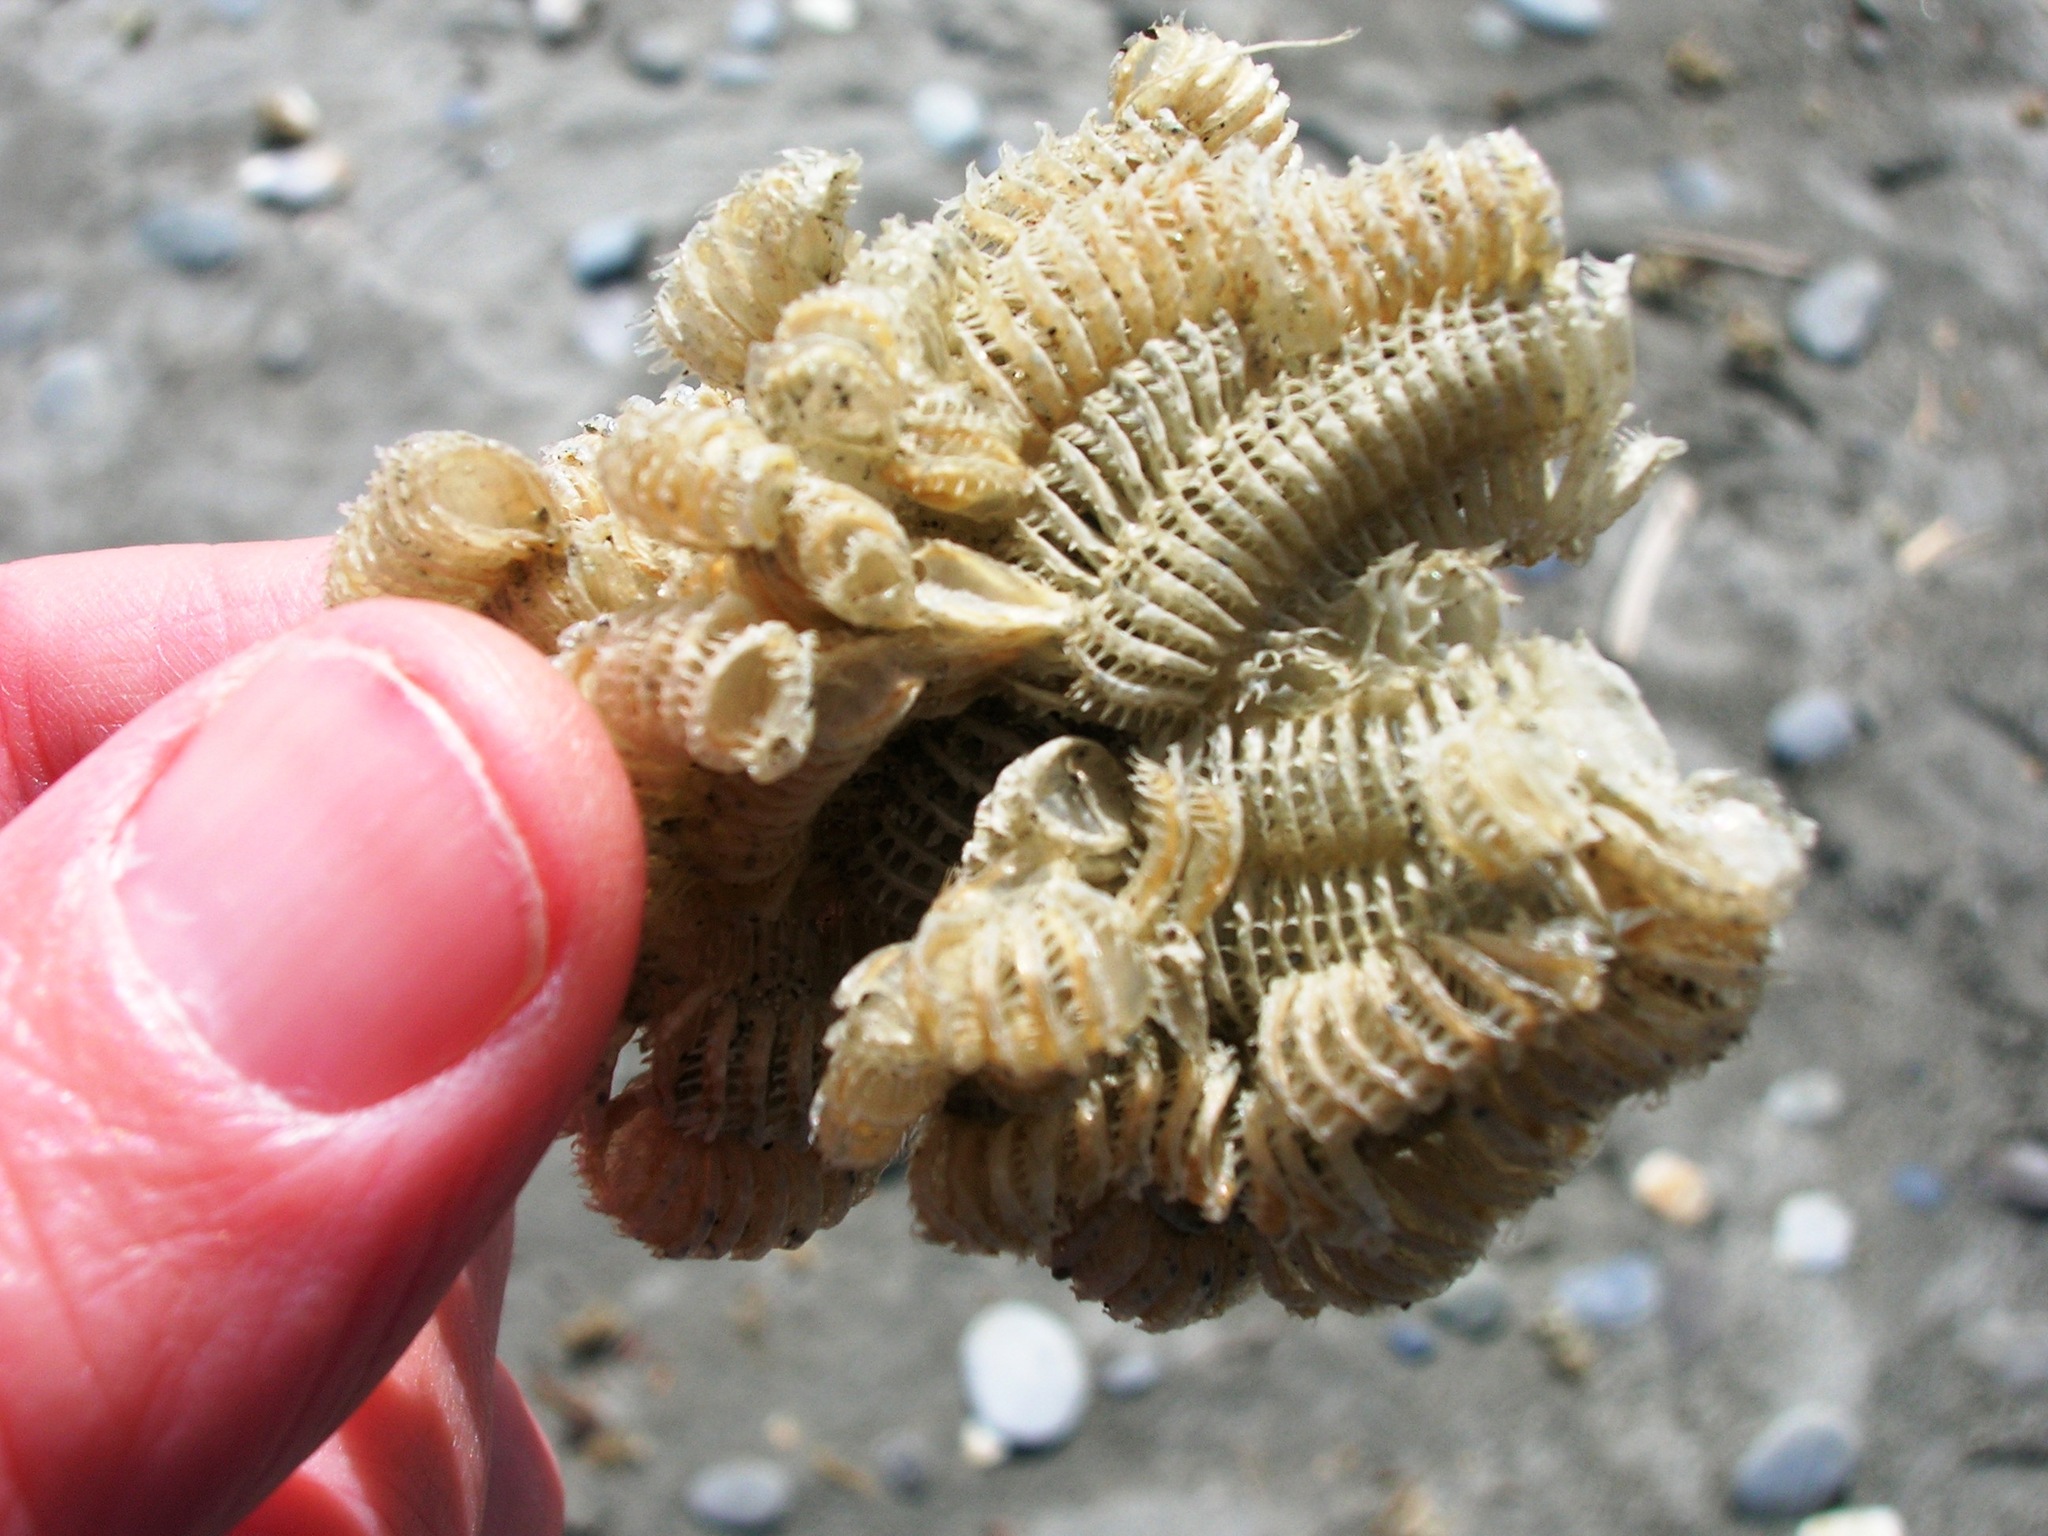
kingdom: Animalia
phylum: Mollusca
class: Gastropoda
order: Neogastropoda
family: Muricidae
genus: Poirieria
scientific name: Poirieria zelandica
